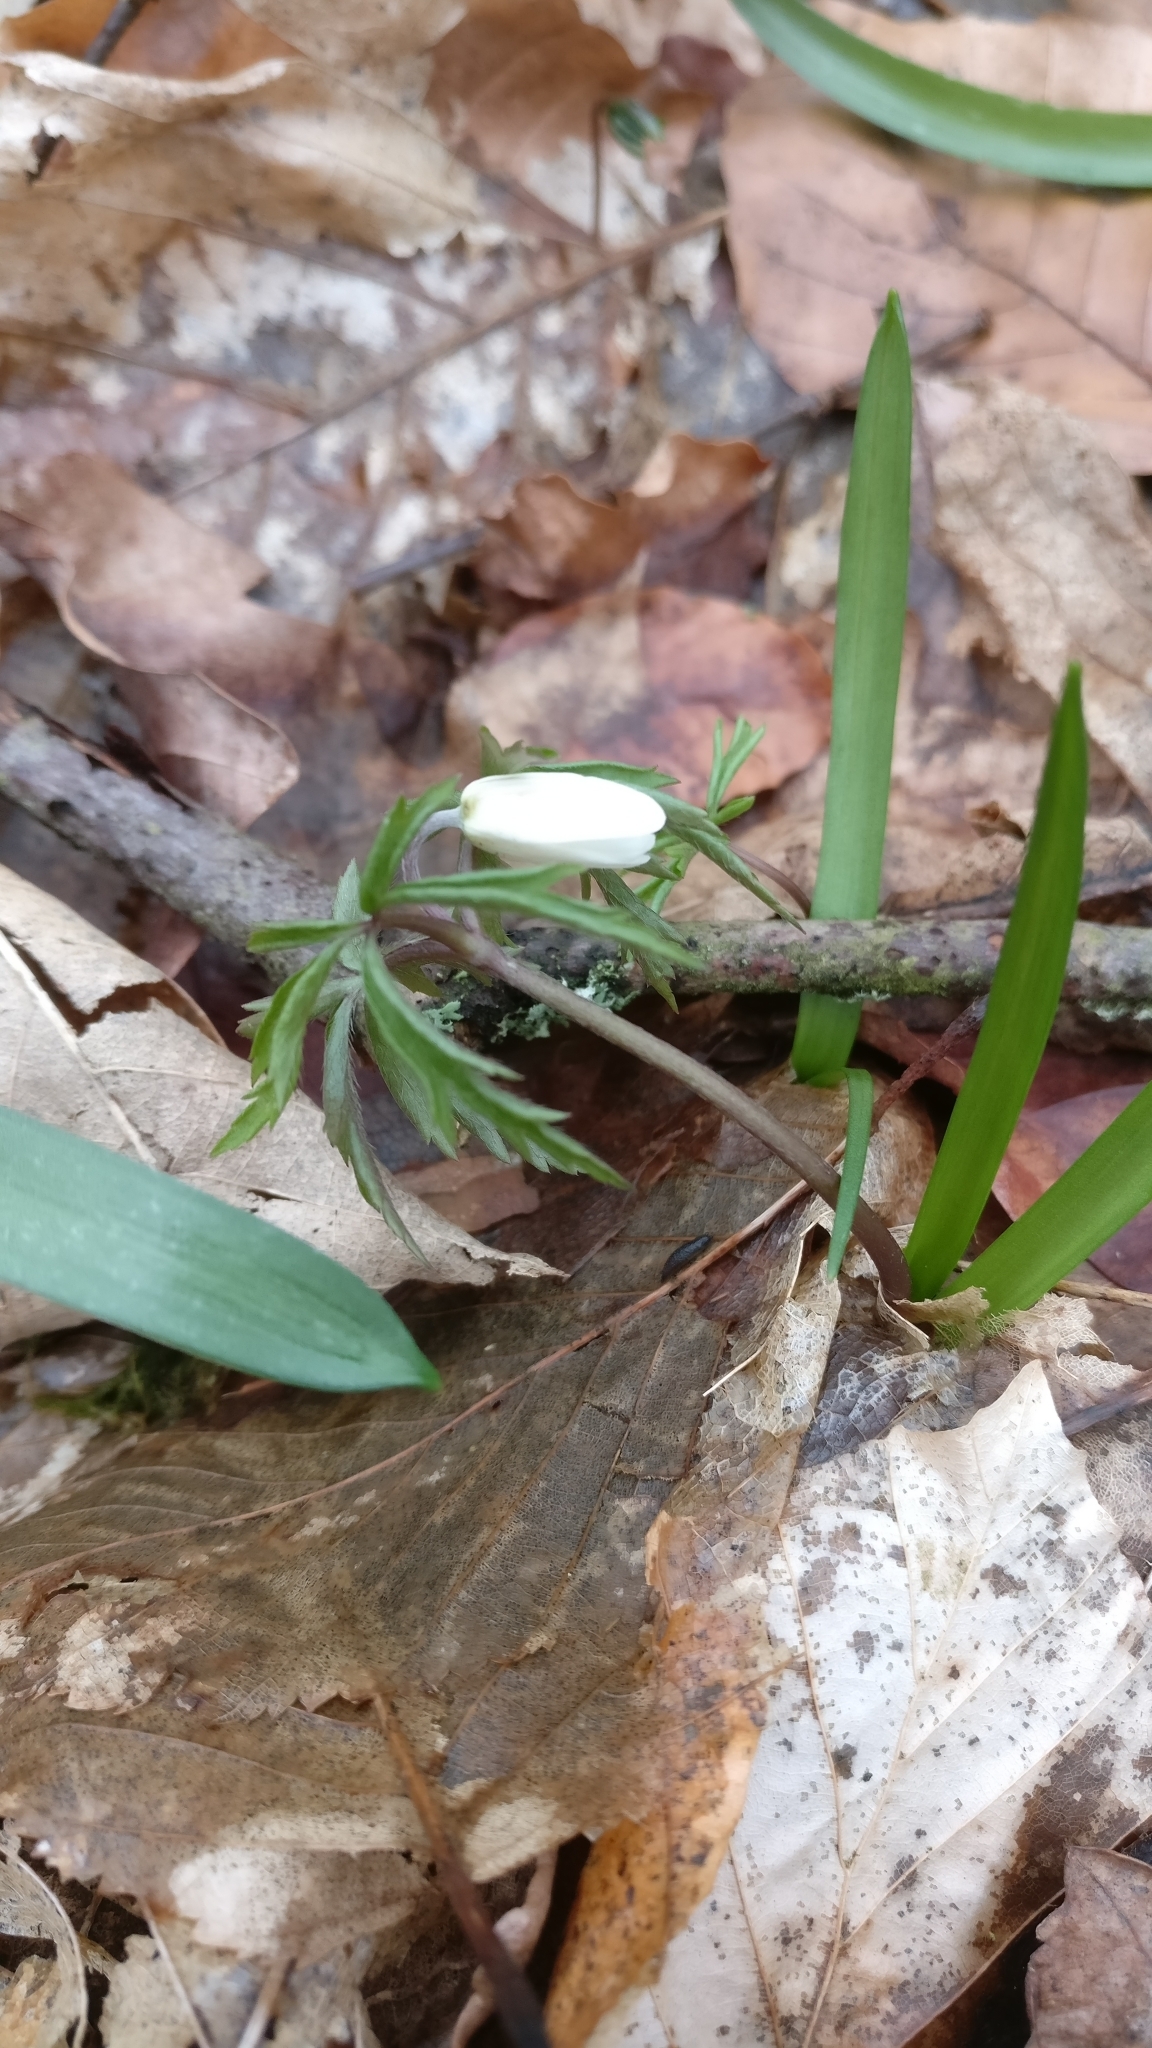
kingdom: Plantae
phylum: Tracheophyta
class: Magnoliopsida
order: Ranunculales
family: Ranunculaceae
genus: Anemone
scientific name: Anemone nemorosa
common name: Wood anemone
